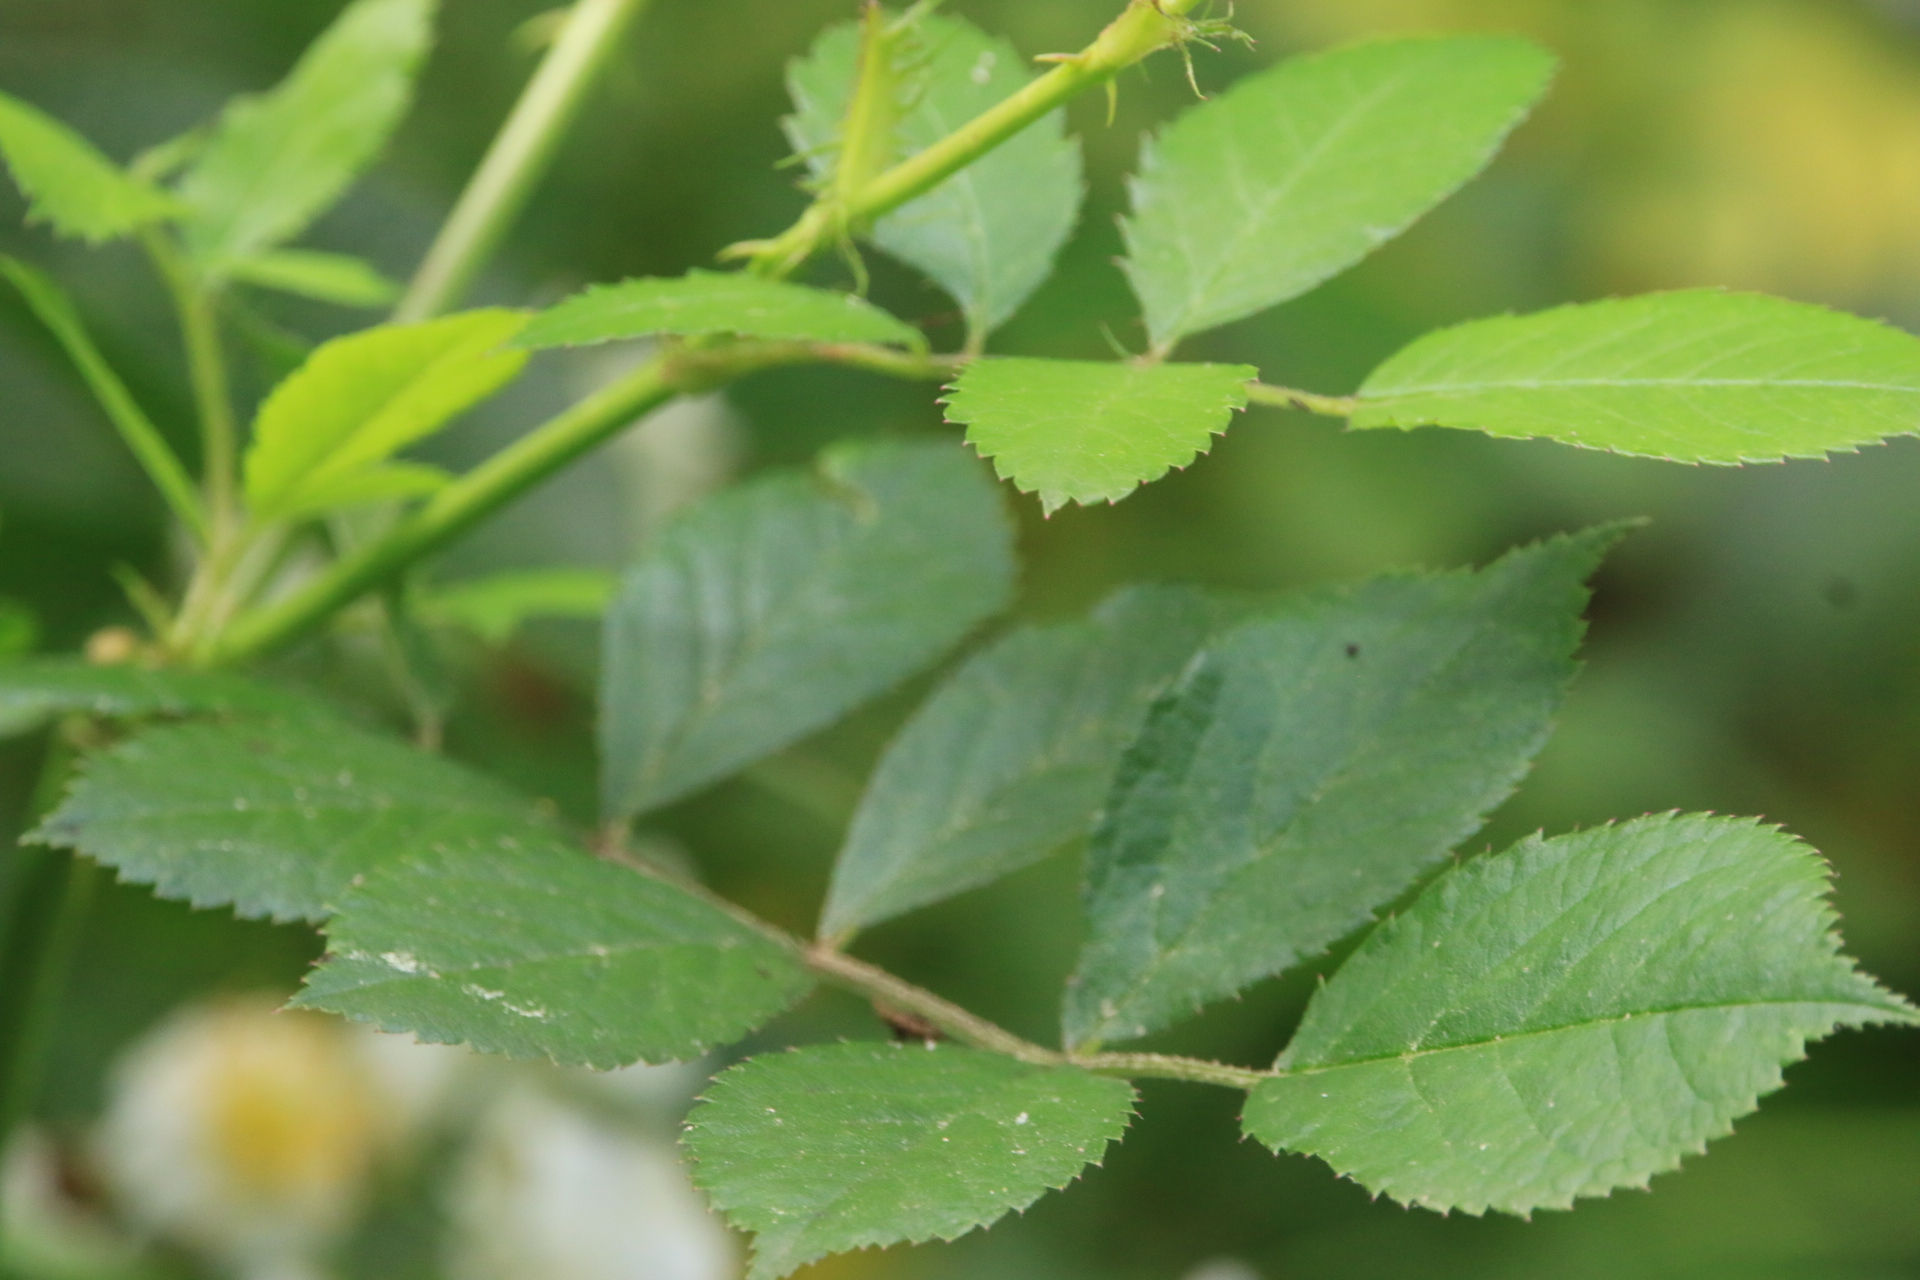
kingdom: Plantae
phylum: Tracheophyta
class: Magnoliopsida
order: Rosales
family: Rosaceae
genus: Rosa
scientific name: Rosa multiflora
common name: Multiflora rose
